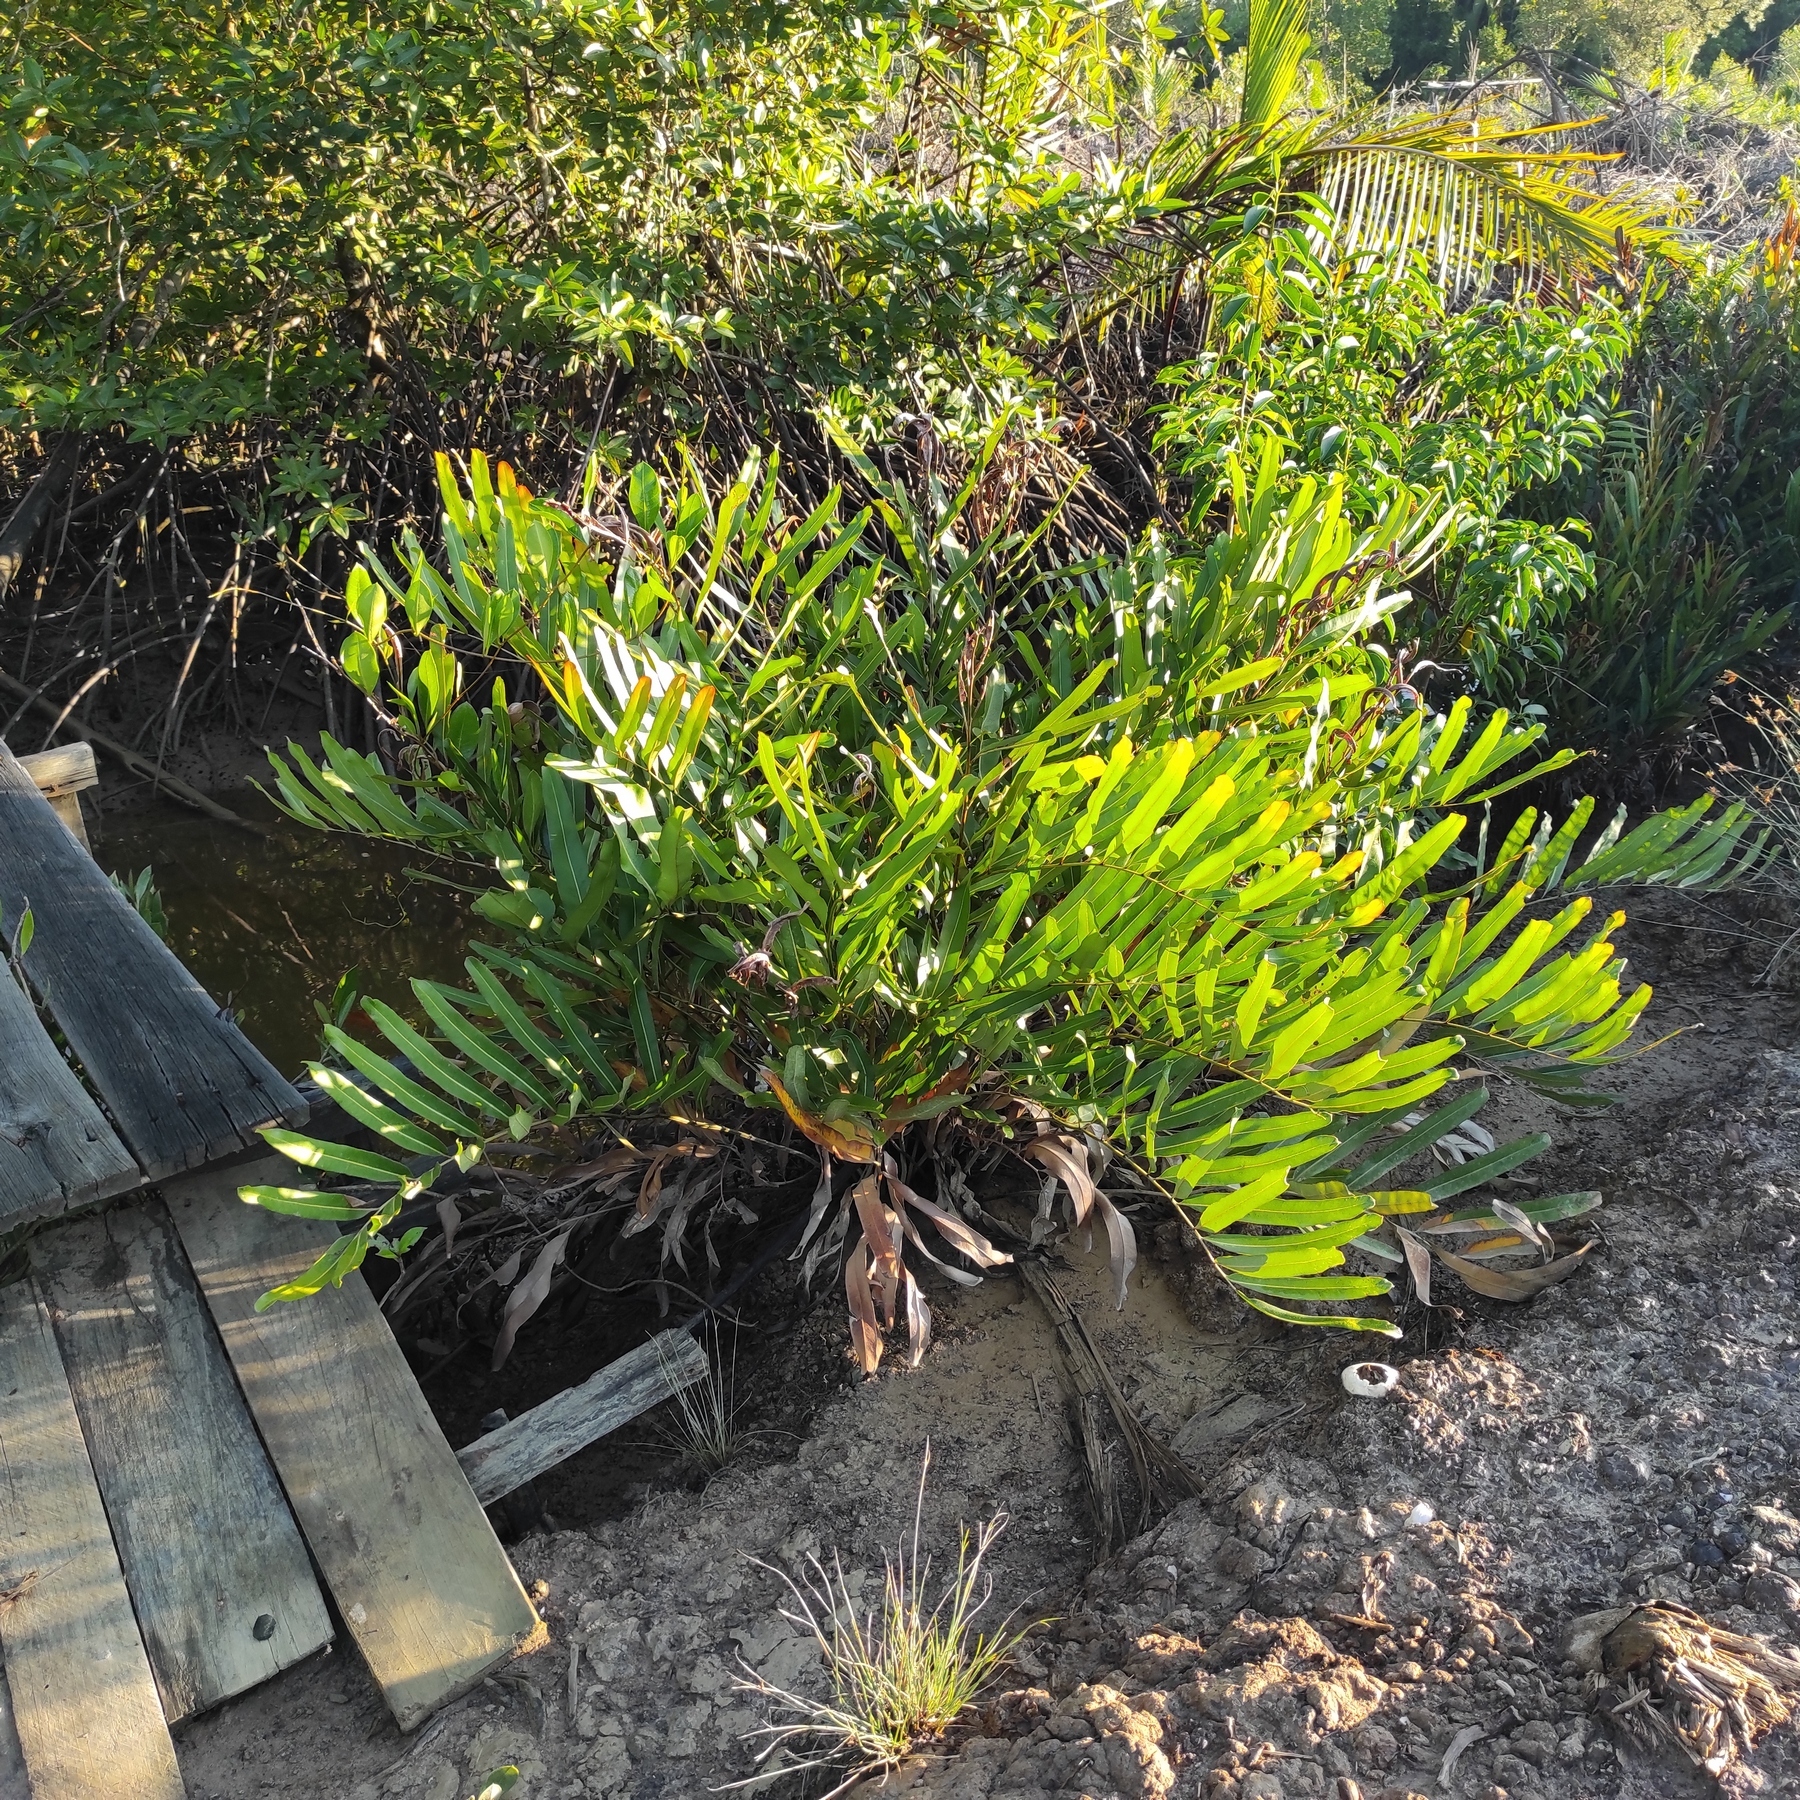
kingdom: Plantae
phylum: Tracheophyta
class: Polypodiopsida
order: Polypodiales
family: Pteridaceae
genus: Acrostichum
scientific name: Acrostichum aureum
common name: Leather fern
